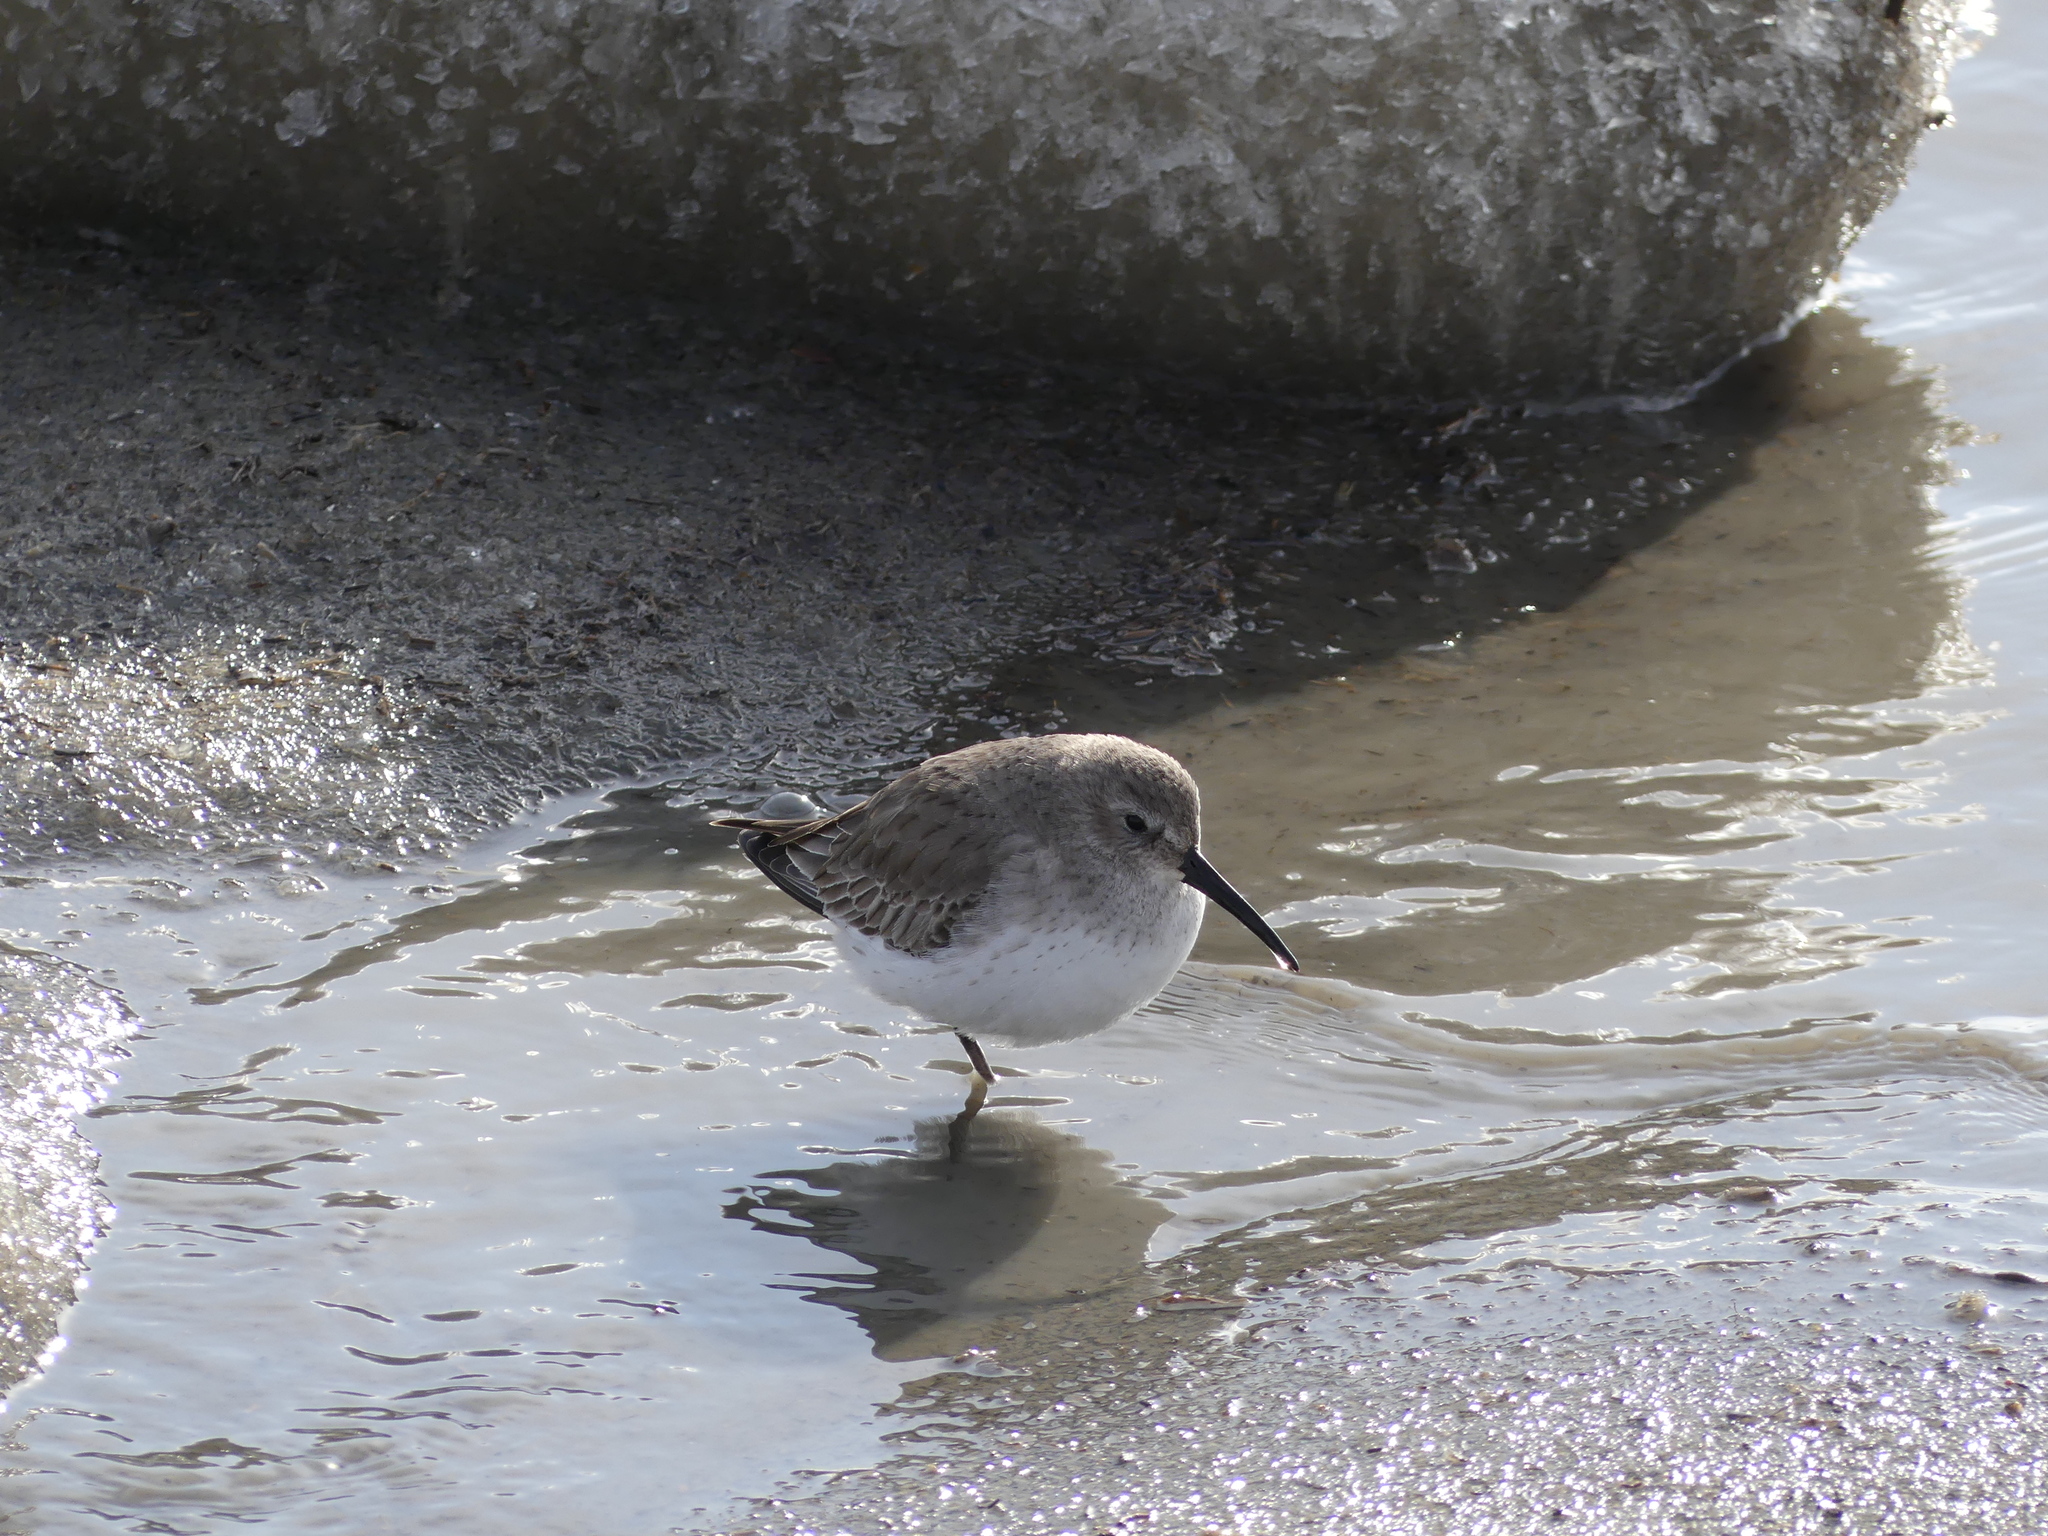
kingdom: Animalia
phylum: Chordata
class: Aves
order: Charadriiformes
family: Scolopacidae
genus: Calidris
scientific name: Calidris alpina
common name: Dunlin
